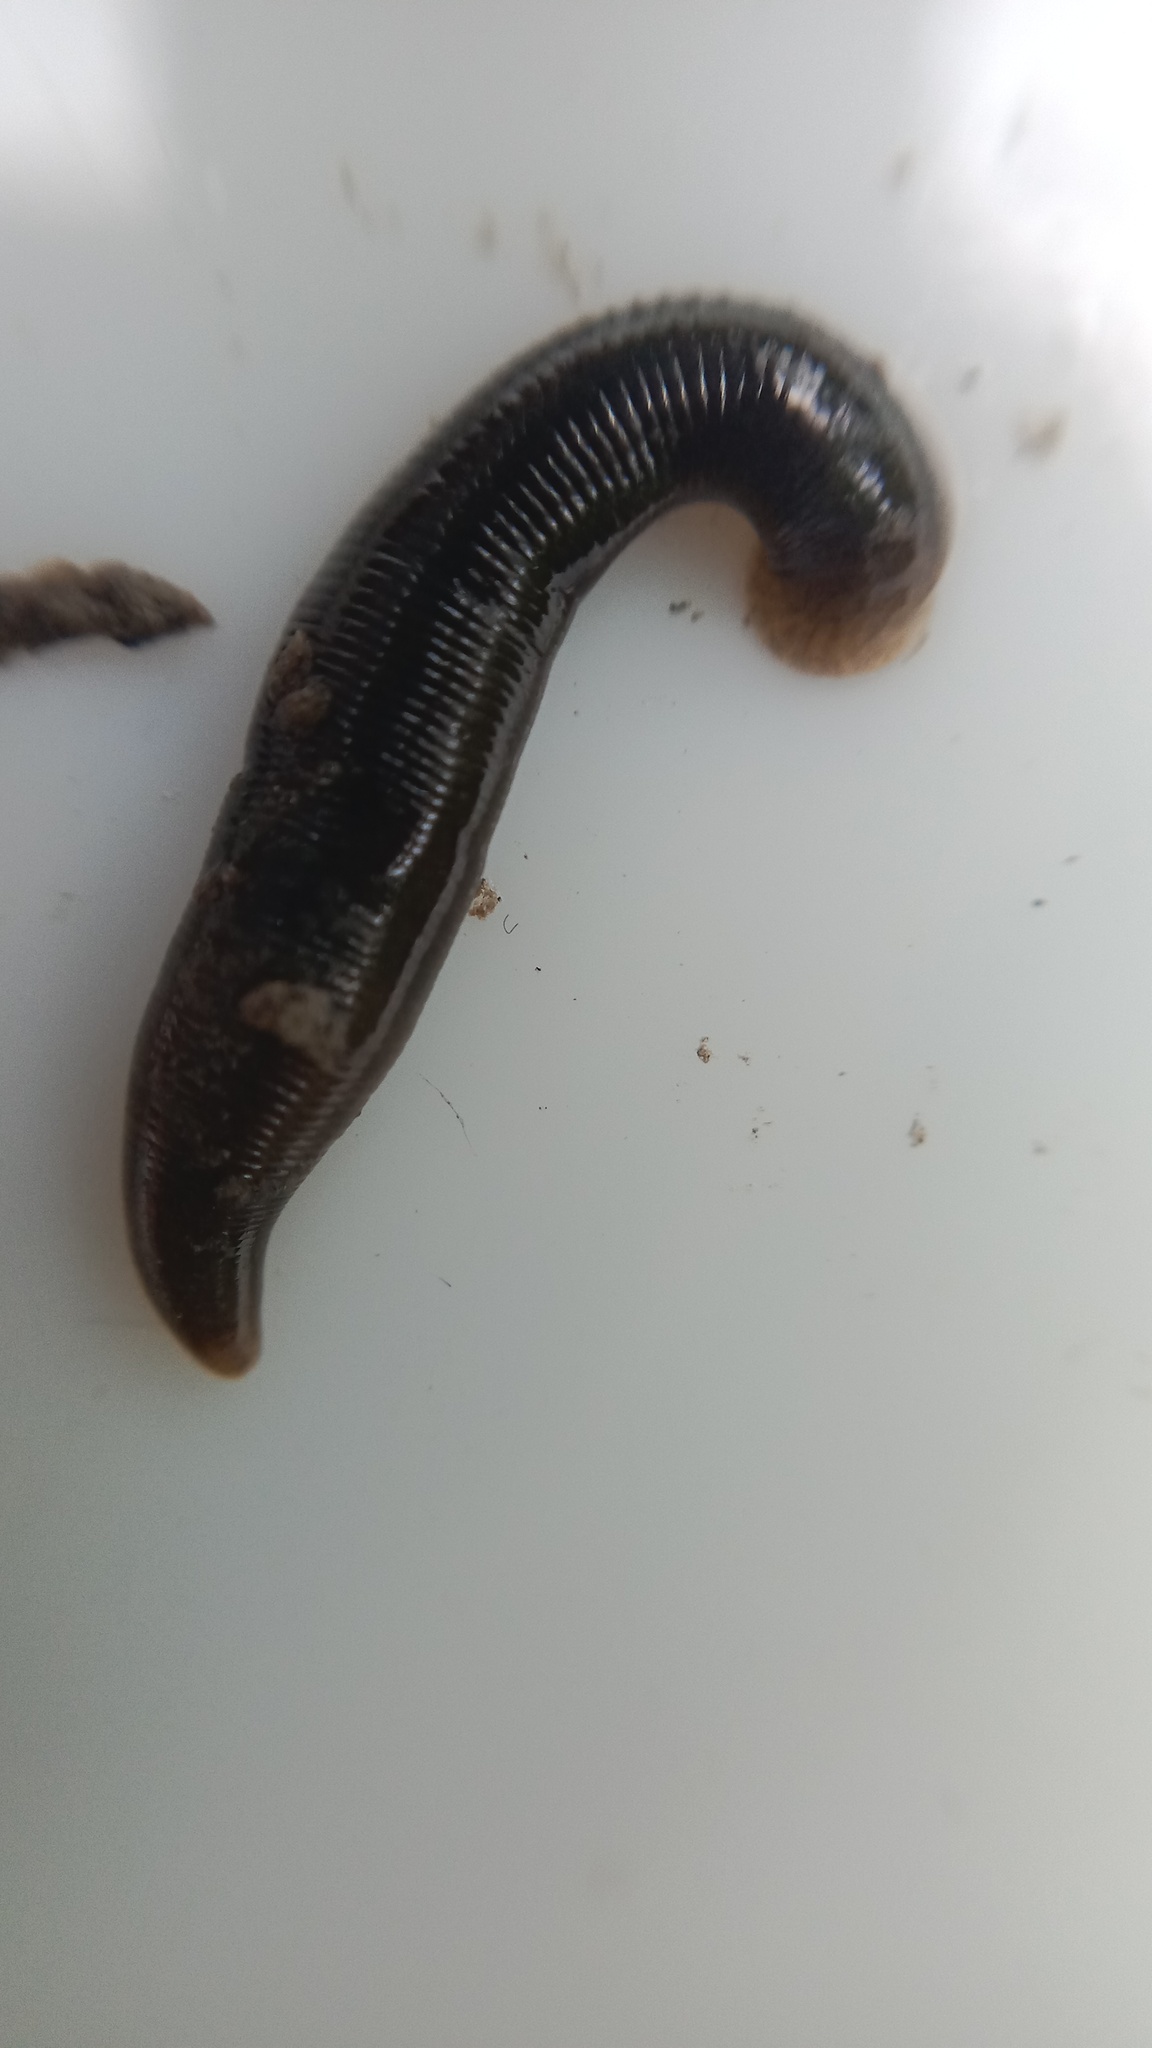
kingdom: Animalia
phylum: Annelida
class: Clitellata
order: Arhynchobdellida
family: Erpobdellidae
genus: Erpobdella
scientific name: Erpobdella octoculata
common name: Leeches
